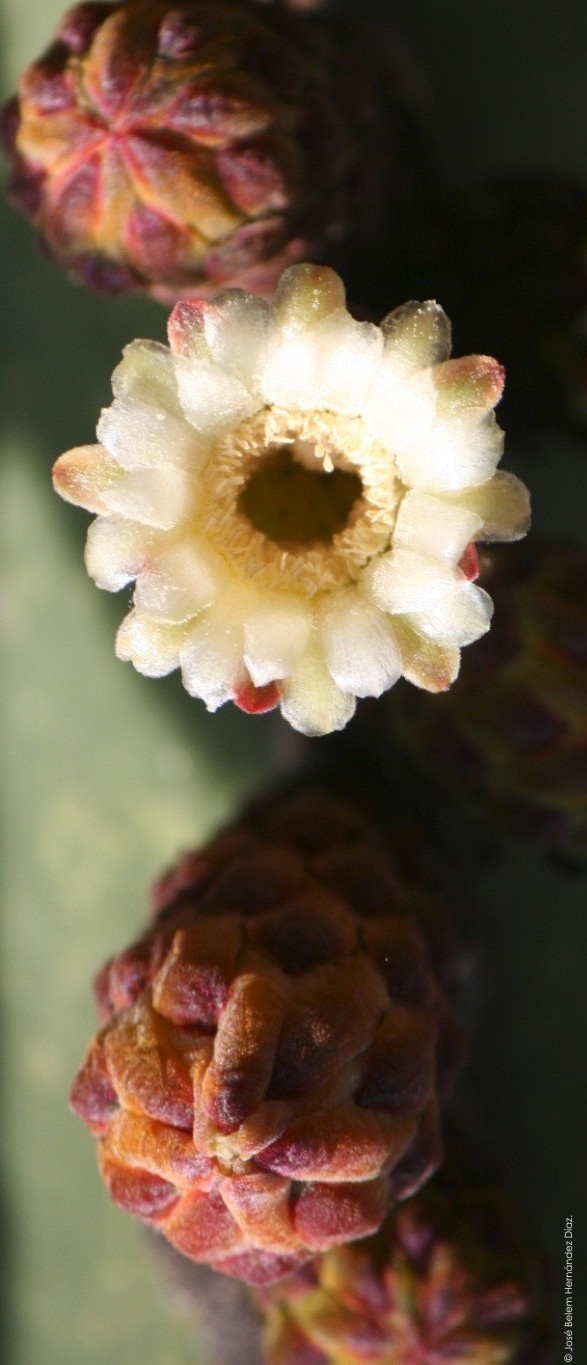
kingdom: Plantae
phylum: Tracheophyta
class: Magnoliopsida
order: Caryophyllales
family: Cactaceae
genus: Marginatocereus
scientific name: Marginatocereus marginatus
